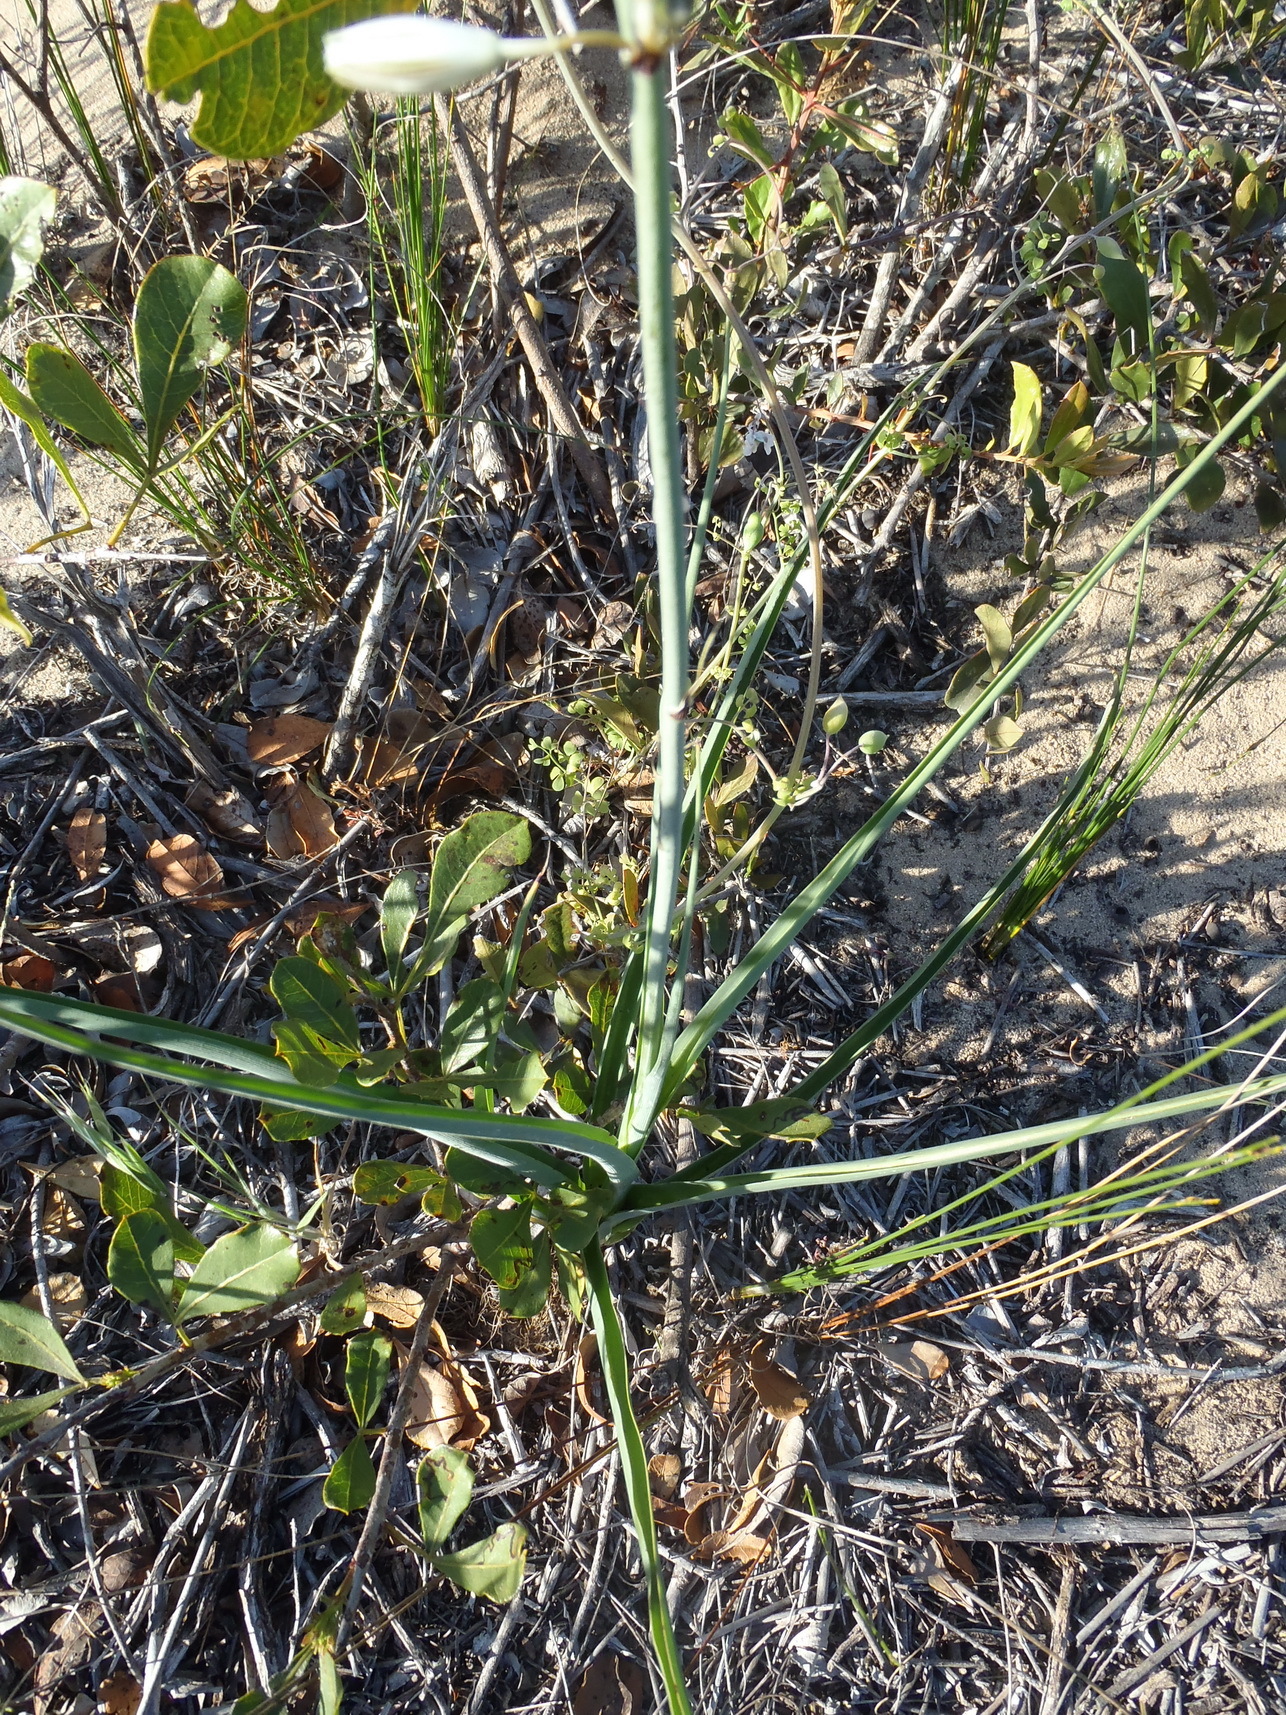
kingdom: Plantae
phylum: Tracheophyta
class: Liliopsida
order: Asparagales
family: Asparagaceae
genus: Albuca
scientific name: Albuca canadensis
